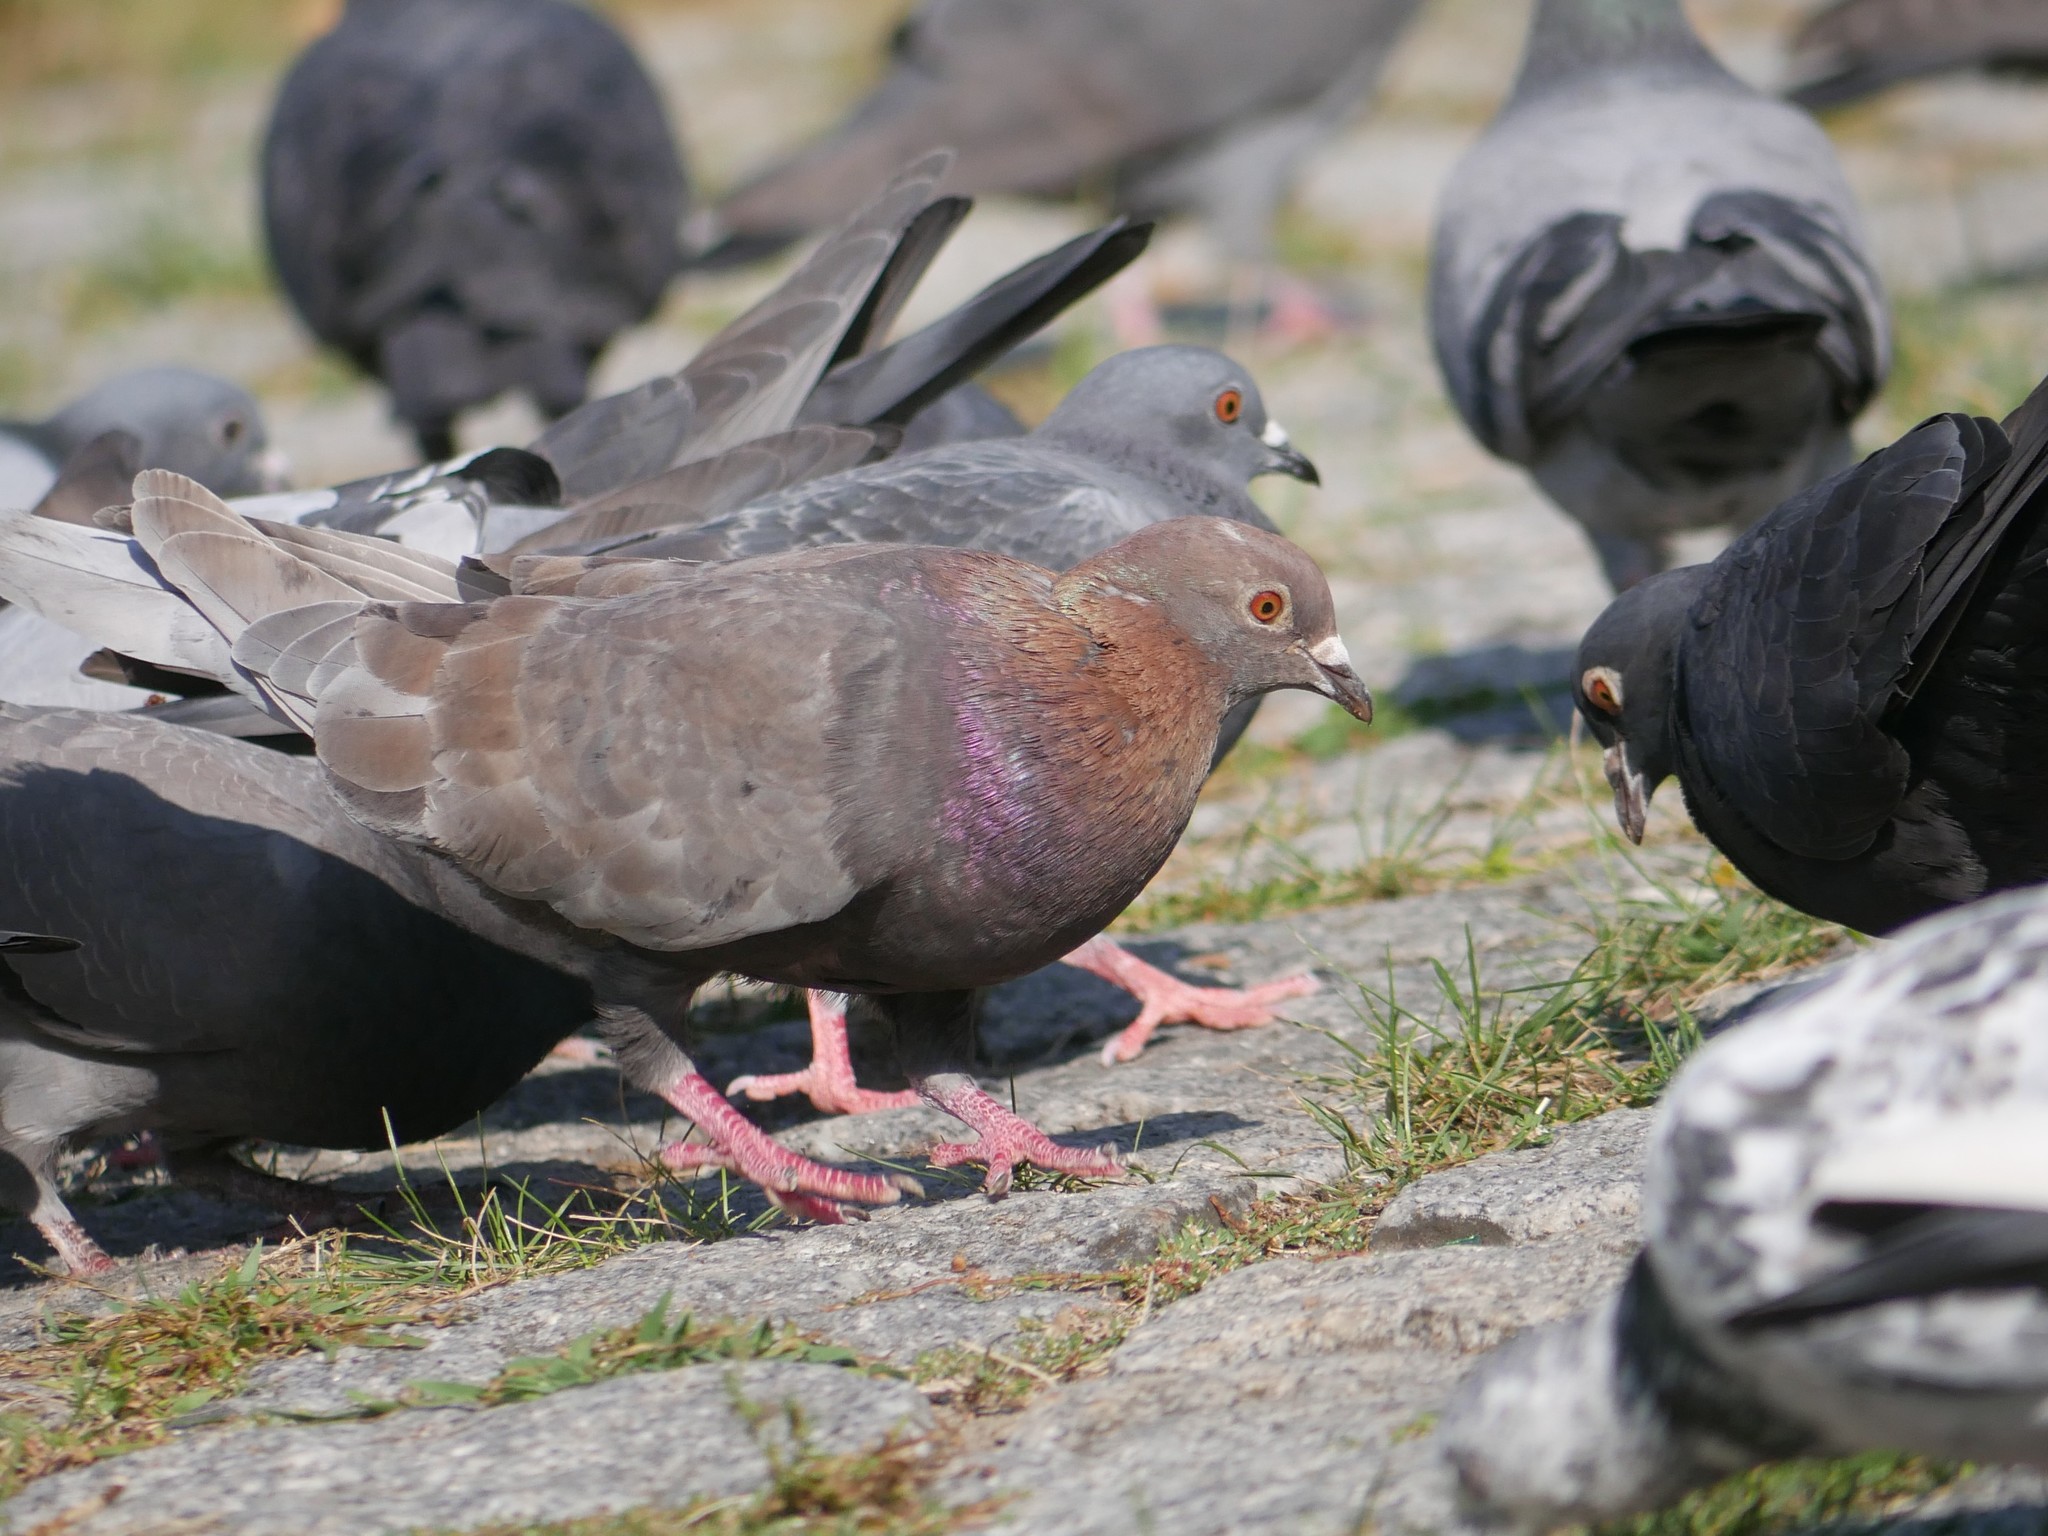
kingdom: Animalia
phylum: Chordata
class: Aves
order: Columbiformes
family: Columbidae
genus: Columba
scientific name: Columba livia
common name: Rock pigeon
